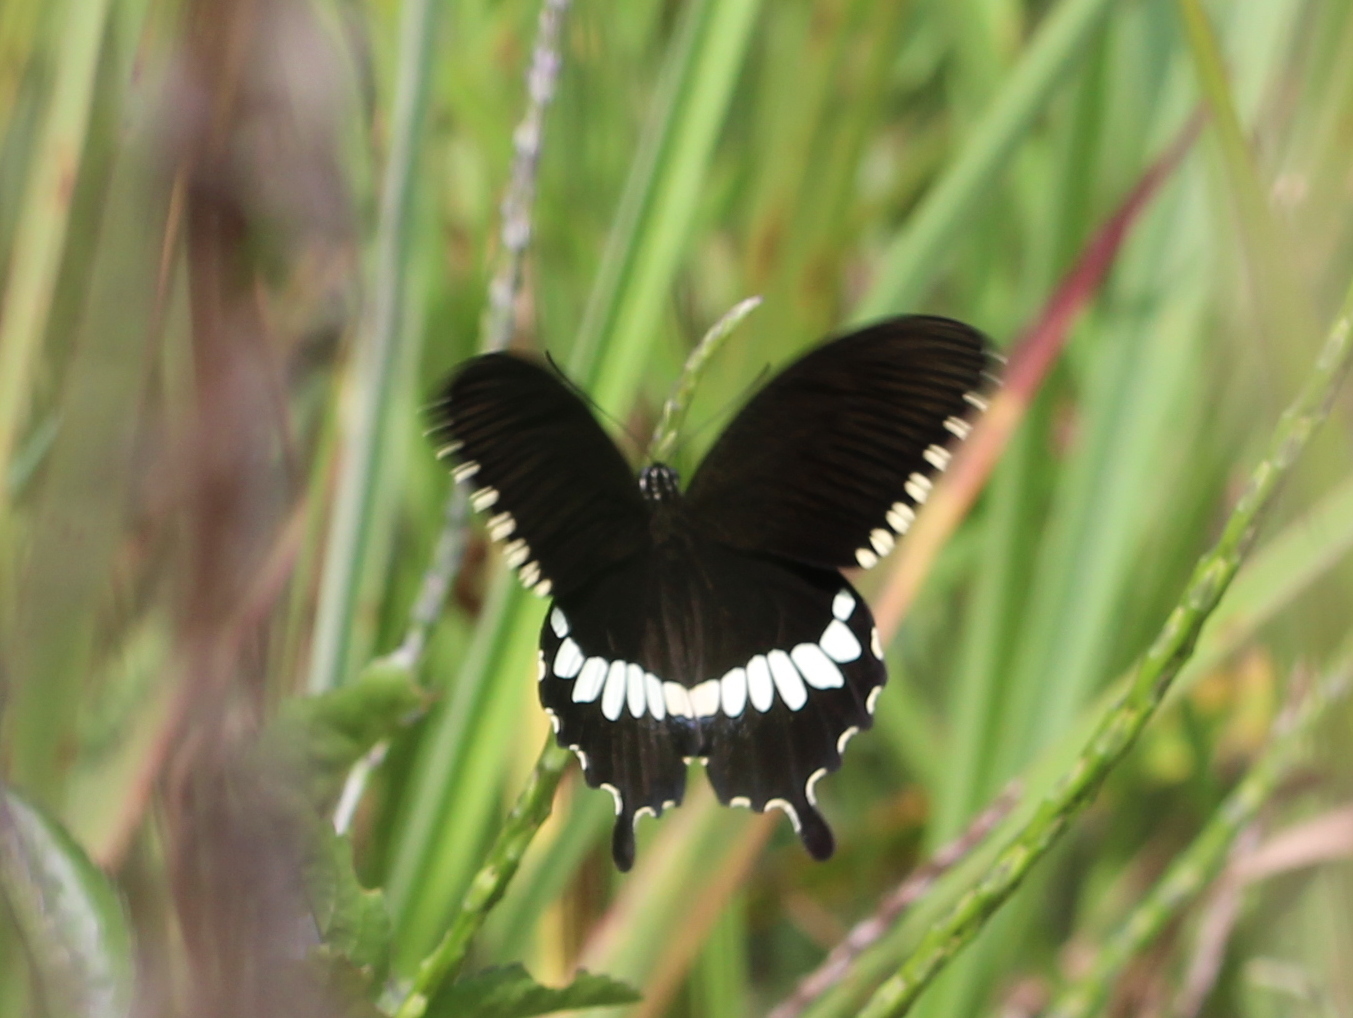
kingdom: Animalia
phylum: Arthropoda
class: Insecta
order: Lepidoptera
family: Papilionidae
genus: Papilio
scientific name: Papilio polytes
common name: Common mormon
